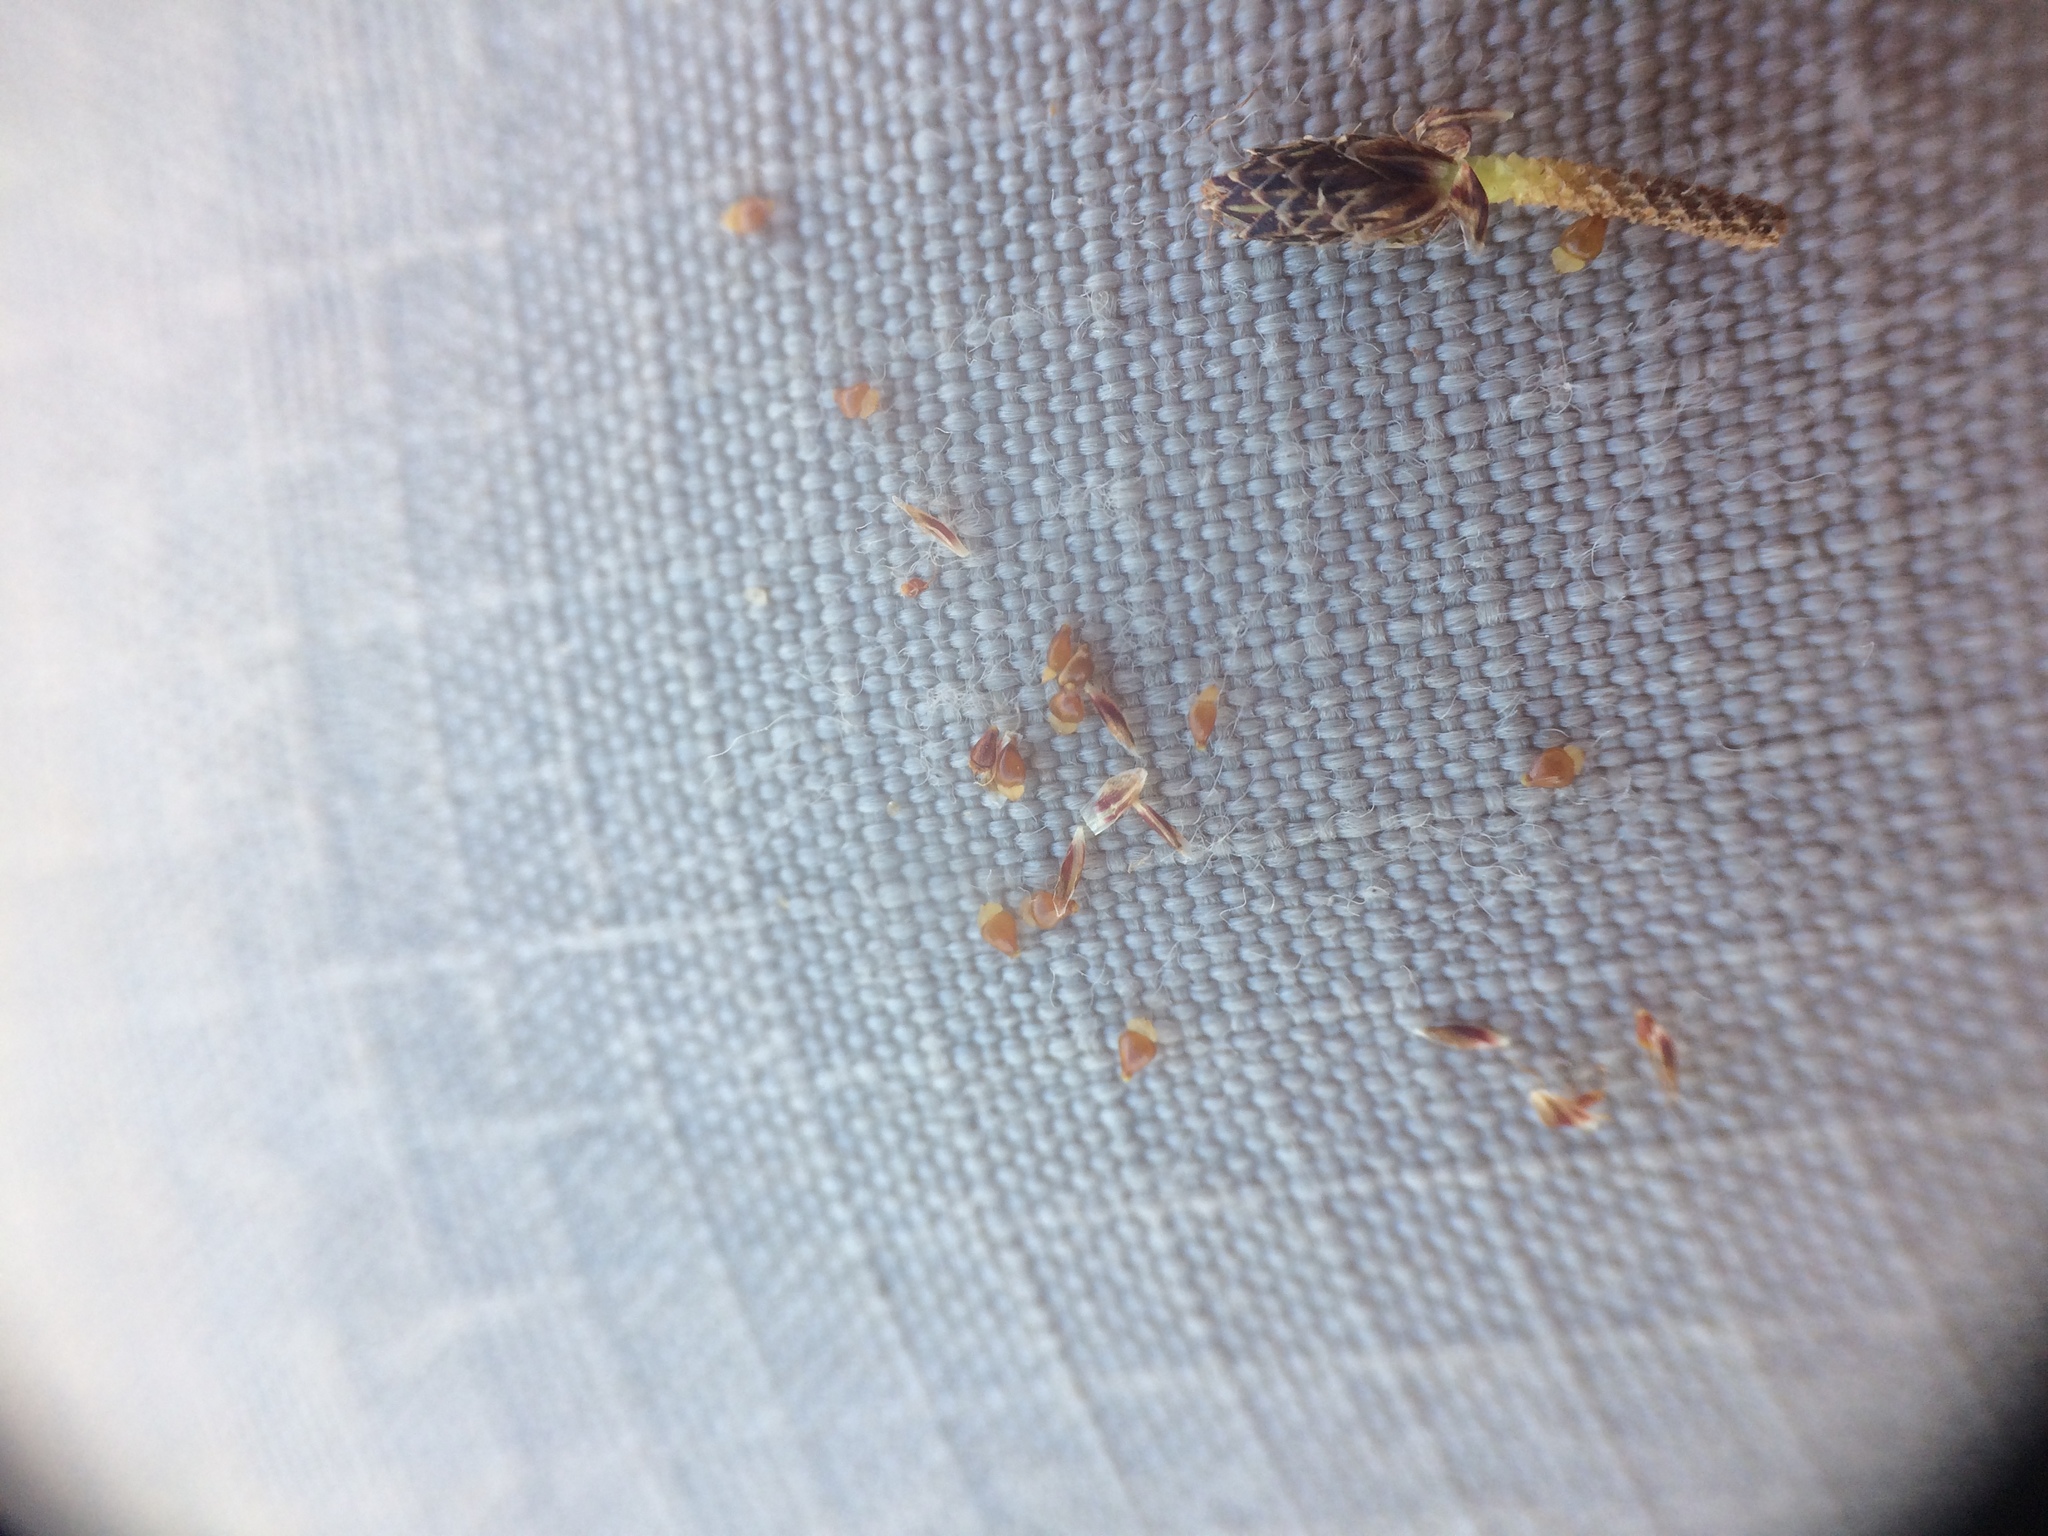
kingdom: Plantae
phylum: Tracheophyta
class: Liliopsida
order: Poales
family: Cyperaceae
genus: Eleocharis
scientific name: Eleocharis diandra
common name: Wright's spikerush
